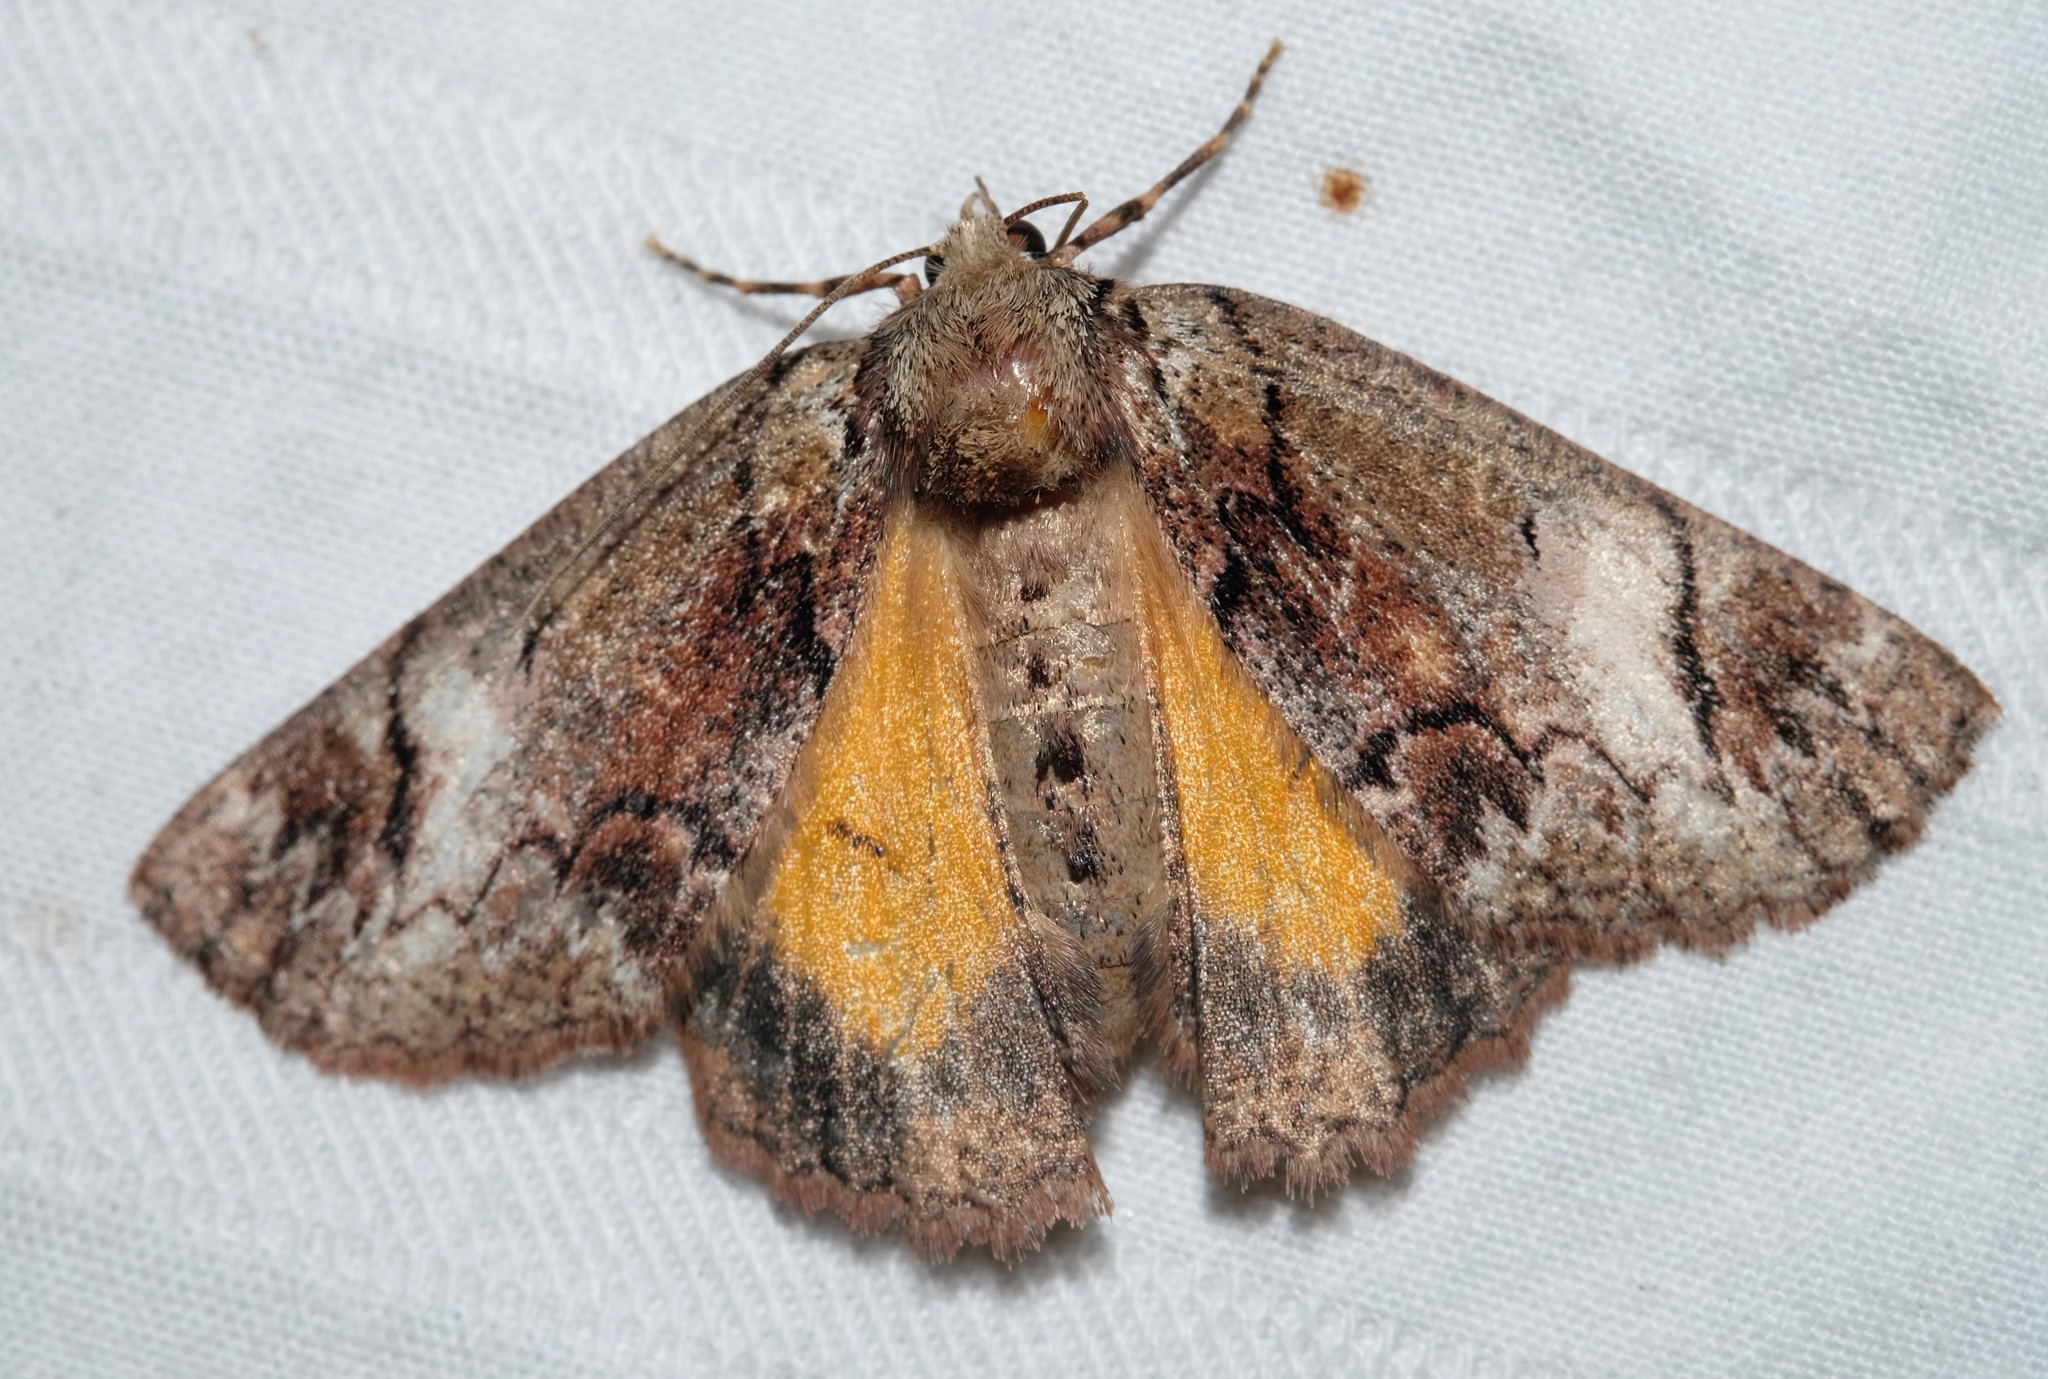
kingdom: Animalia
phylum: Arthropoda
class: Insecta
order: Lepidoptera
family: Geometridae
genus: Heliomystis
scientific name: Heliomystis electrica
